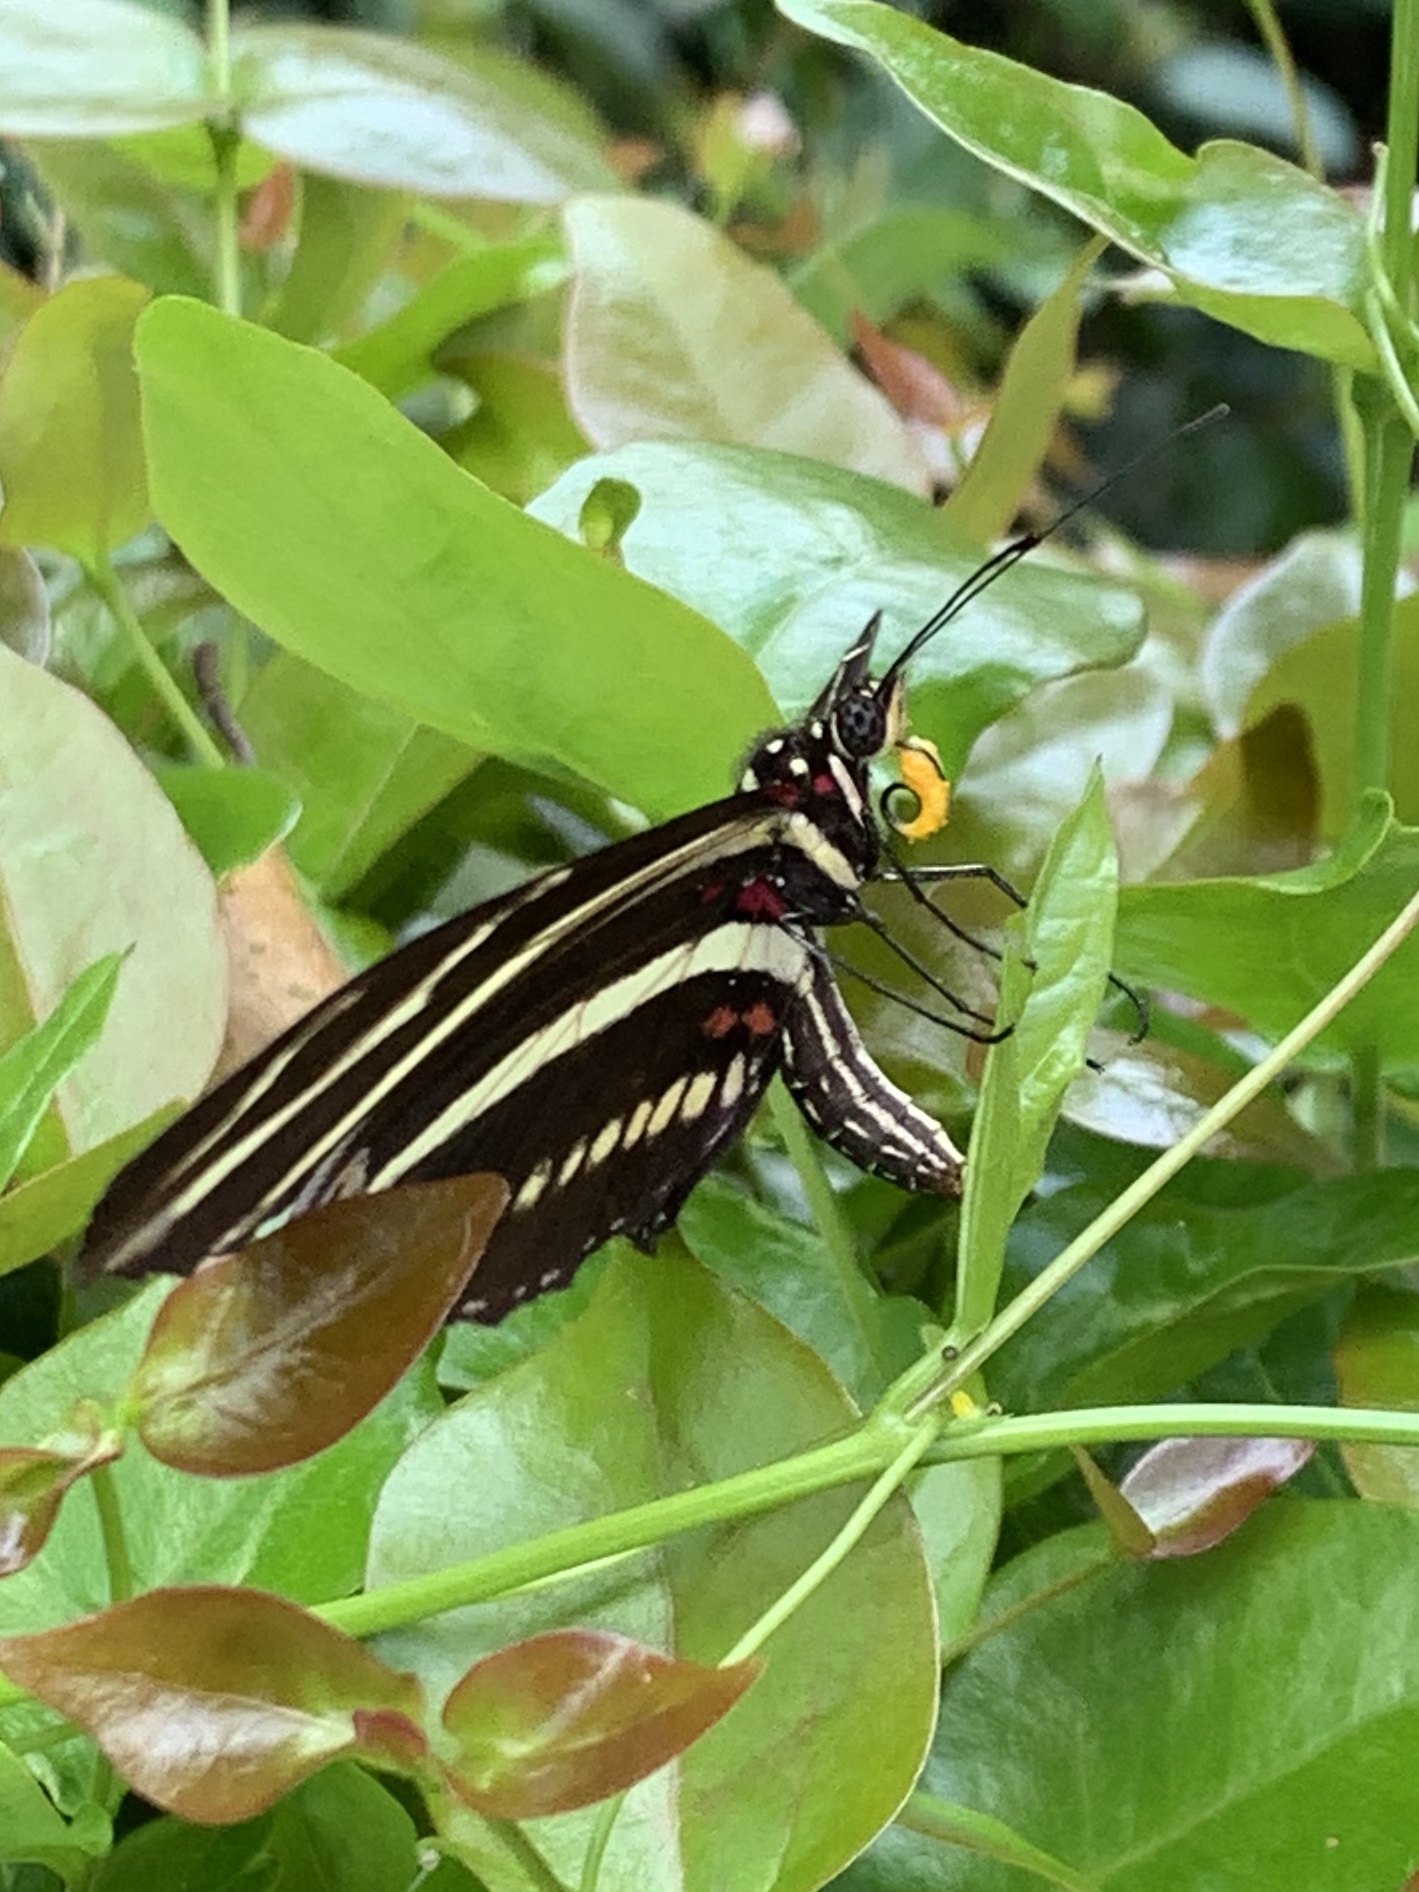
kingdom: Animalia
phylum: Arthropoda
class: Insecta
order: Lepidoptera
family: Nymphalidae
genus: Heliconius
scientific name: Heliconius charithonia
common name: Zebra long wing
